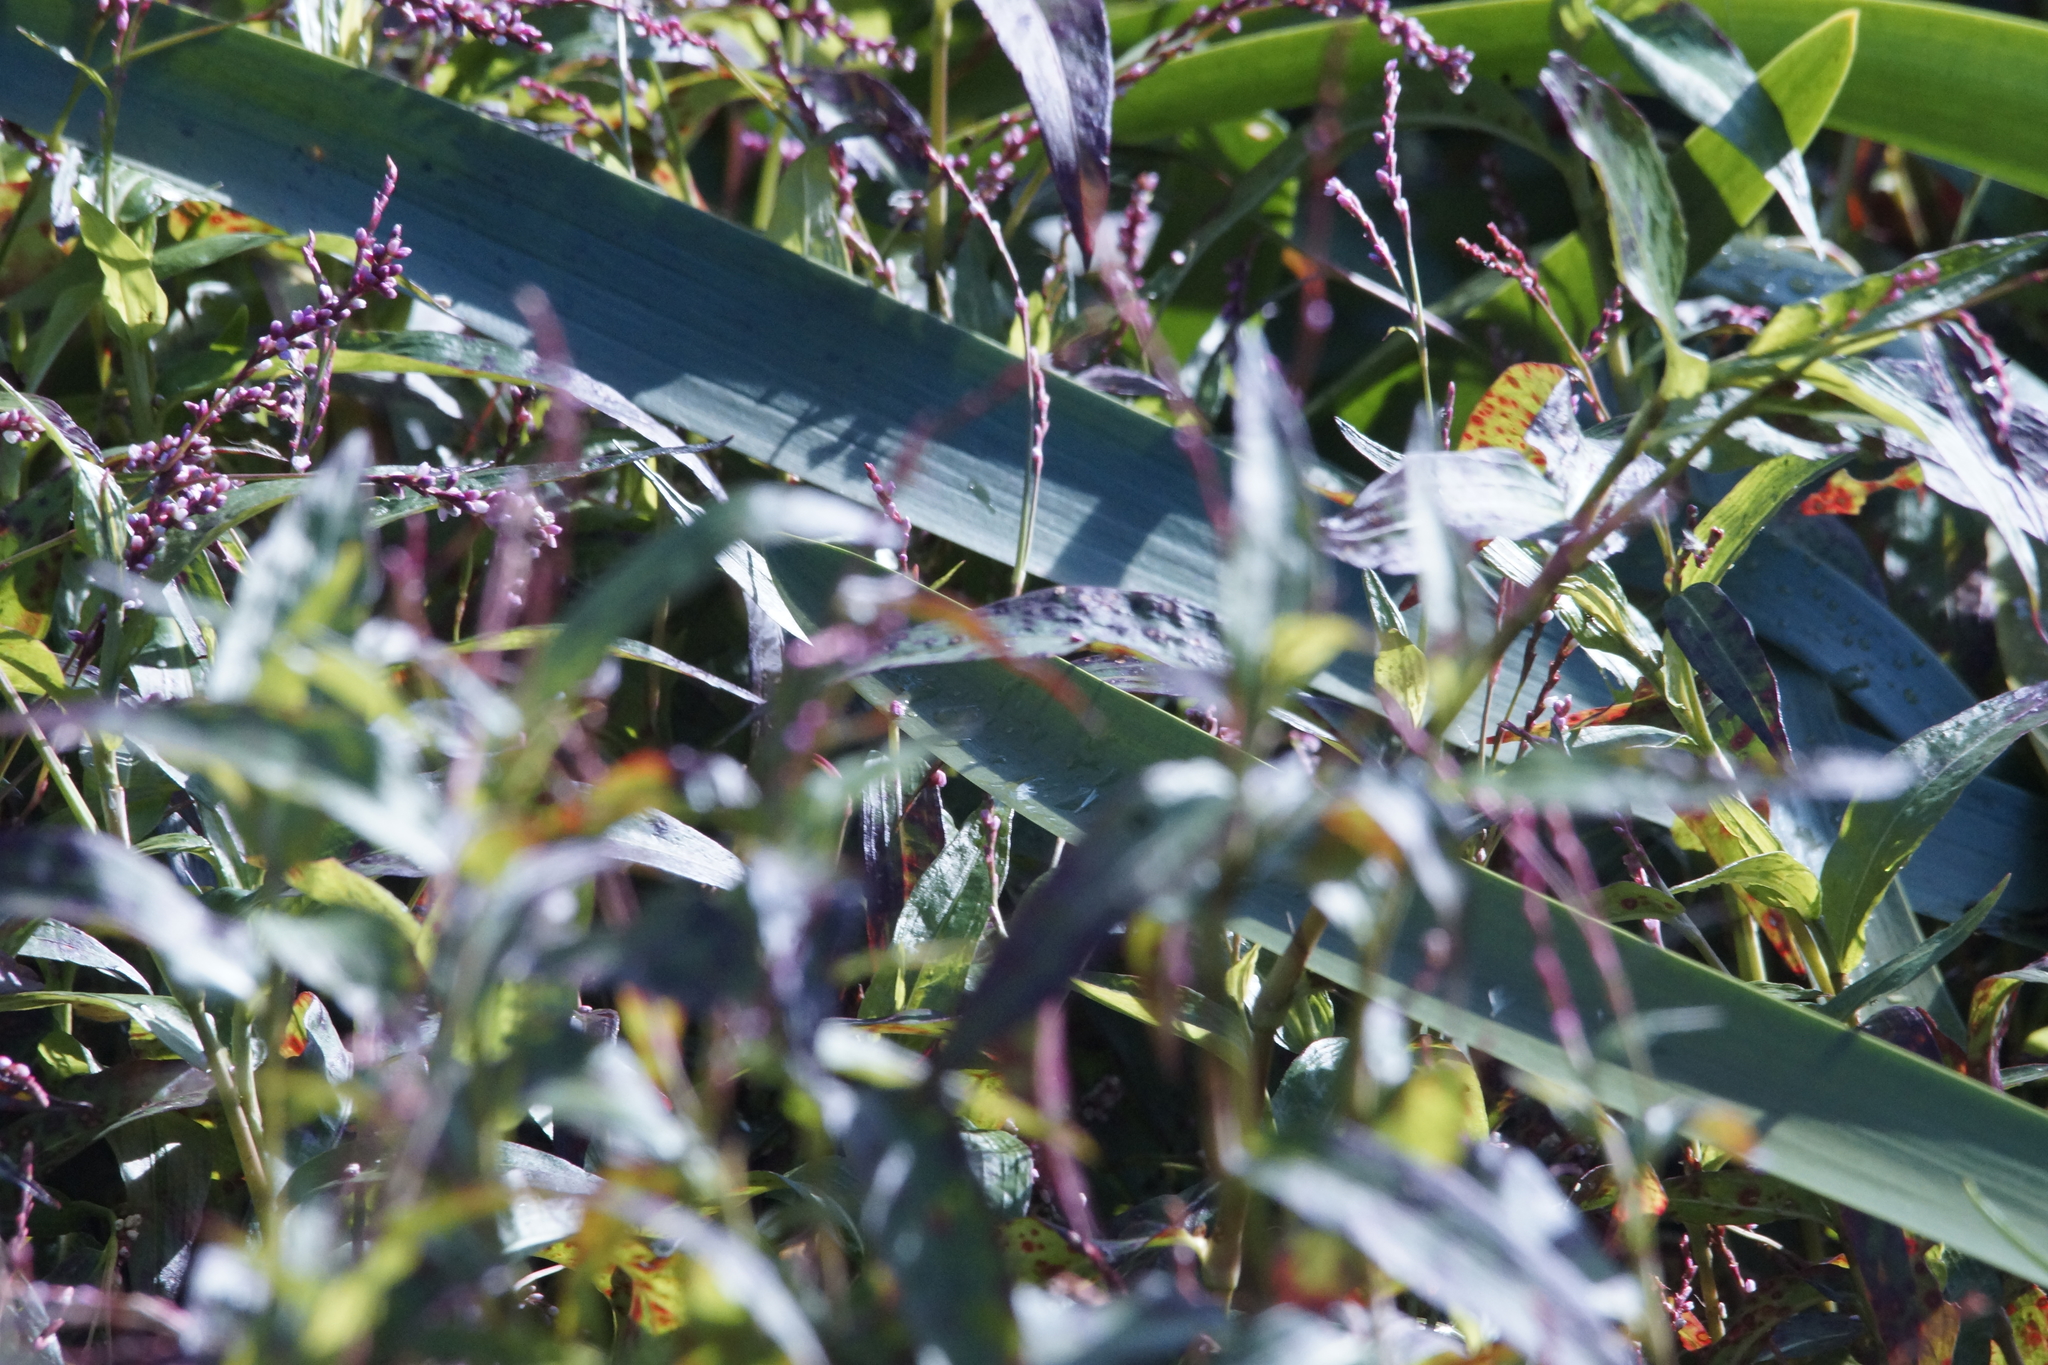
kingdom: Plantae
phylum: Tracheophyta
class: Magnoliopsida
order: Caryophyllales
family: Polygonaceae
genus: Persicaria
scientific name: Persicaria decipiens
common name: Willow-weed
